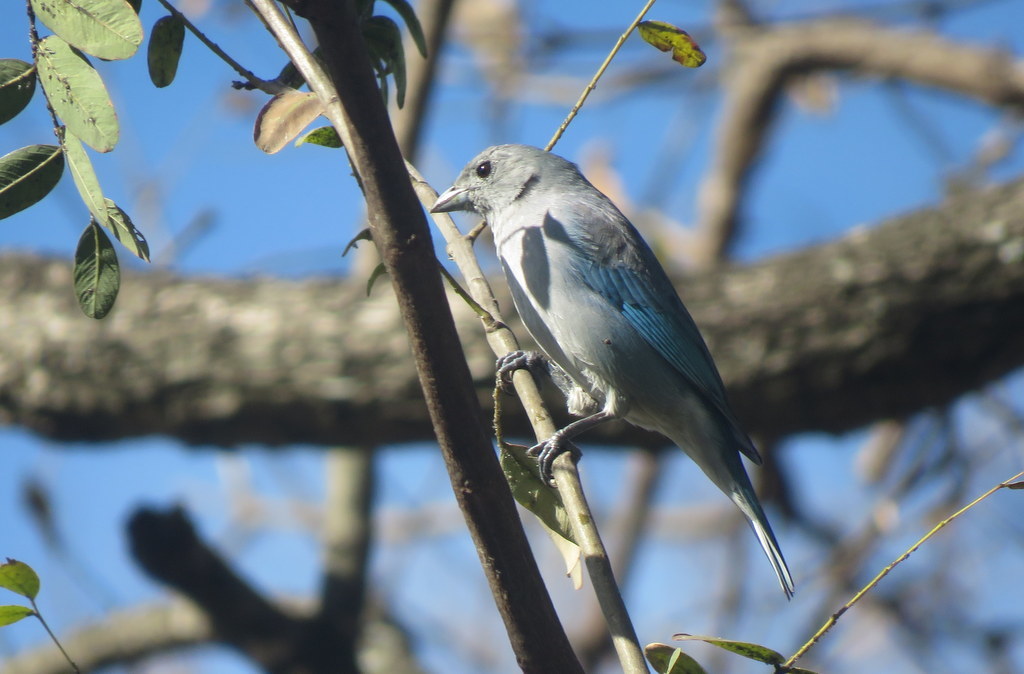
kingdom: Animalia
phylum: Chordata
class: Aves
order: Passeriformes
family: Thraupidae
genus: Thraupis
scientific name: Thraupis sayaca
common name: Sayaca tanager
